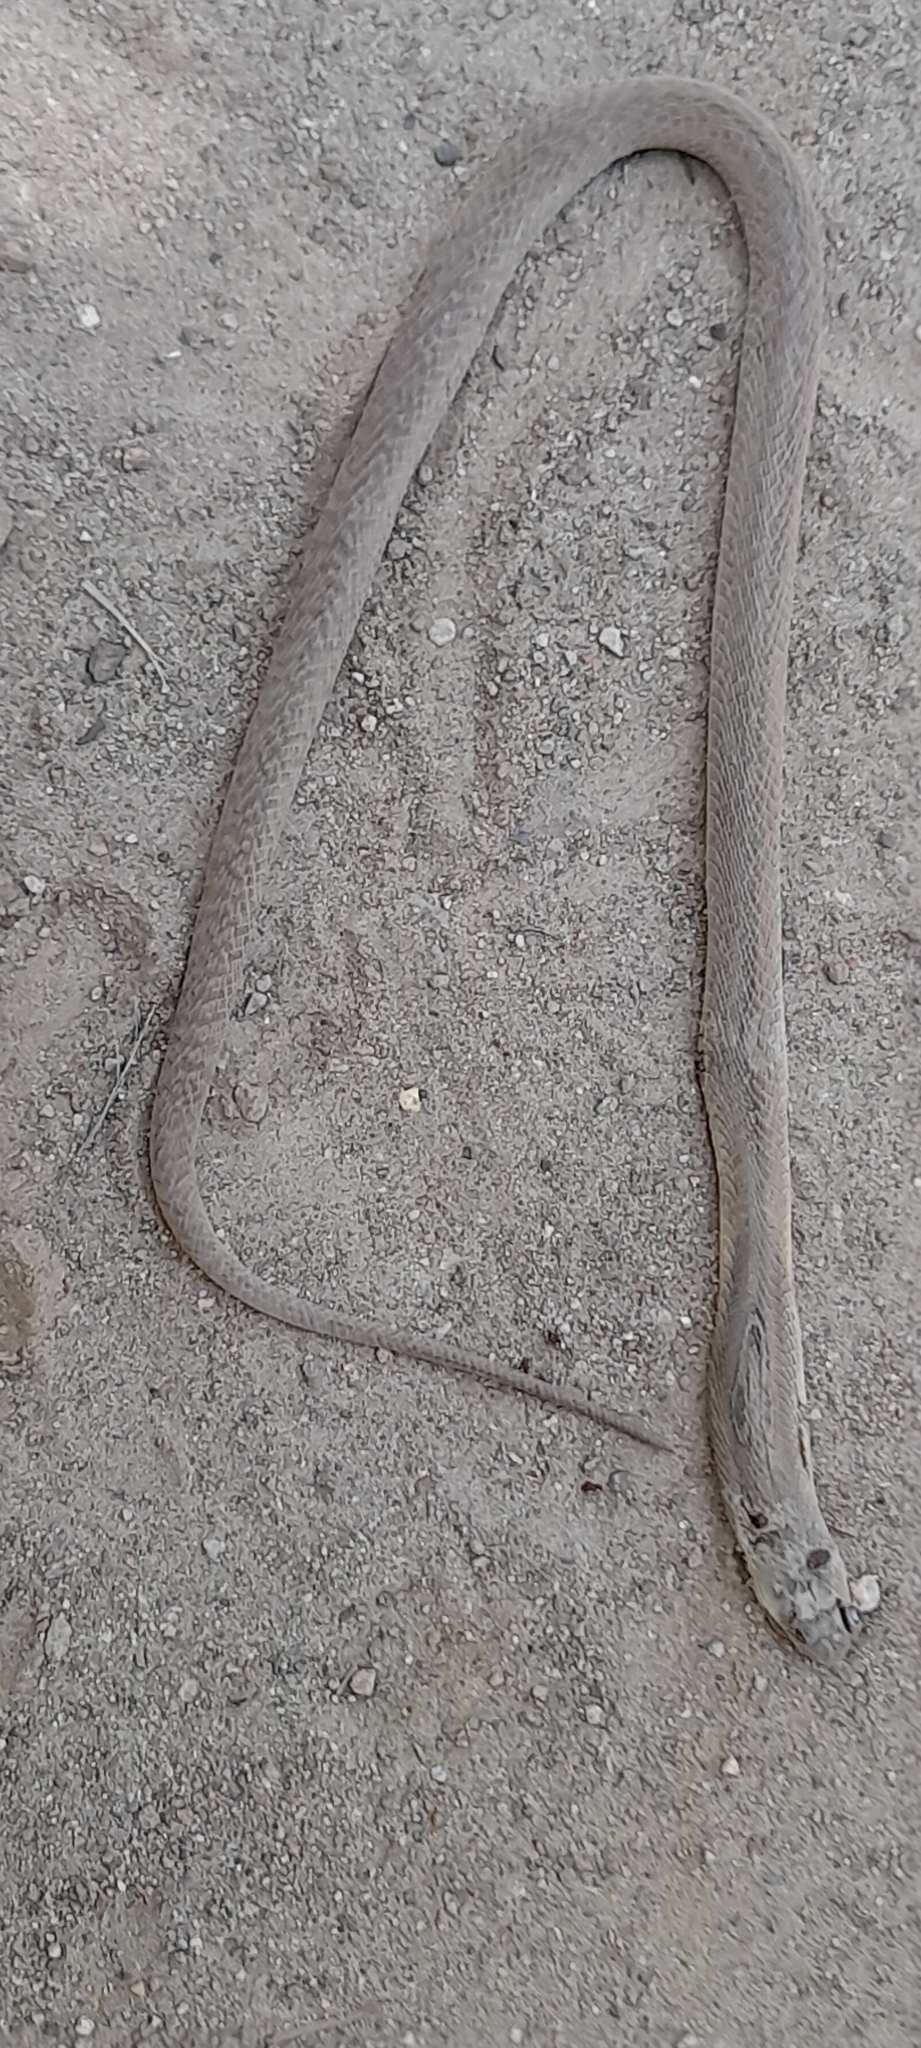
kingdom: Animalia
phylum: Chordata
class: Squamata
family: Elapidae
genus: Naja
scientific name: Naja naja
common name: Indian cobra
